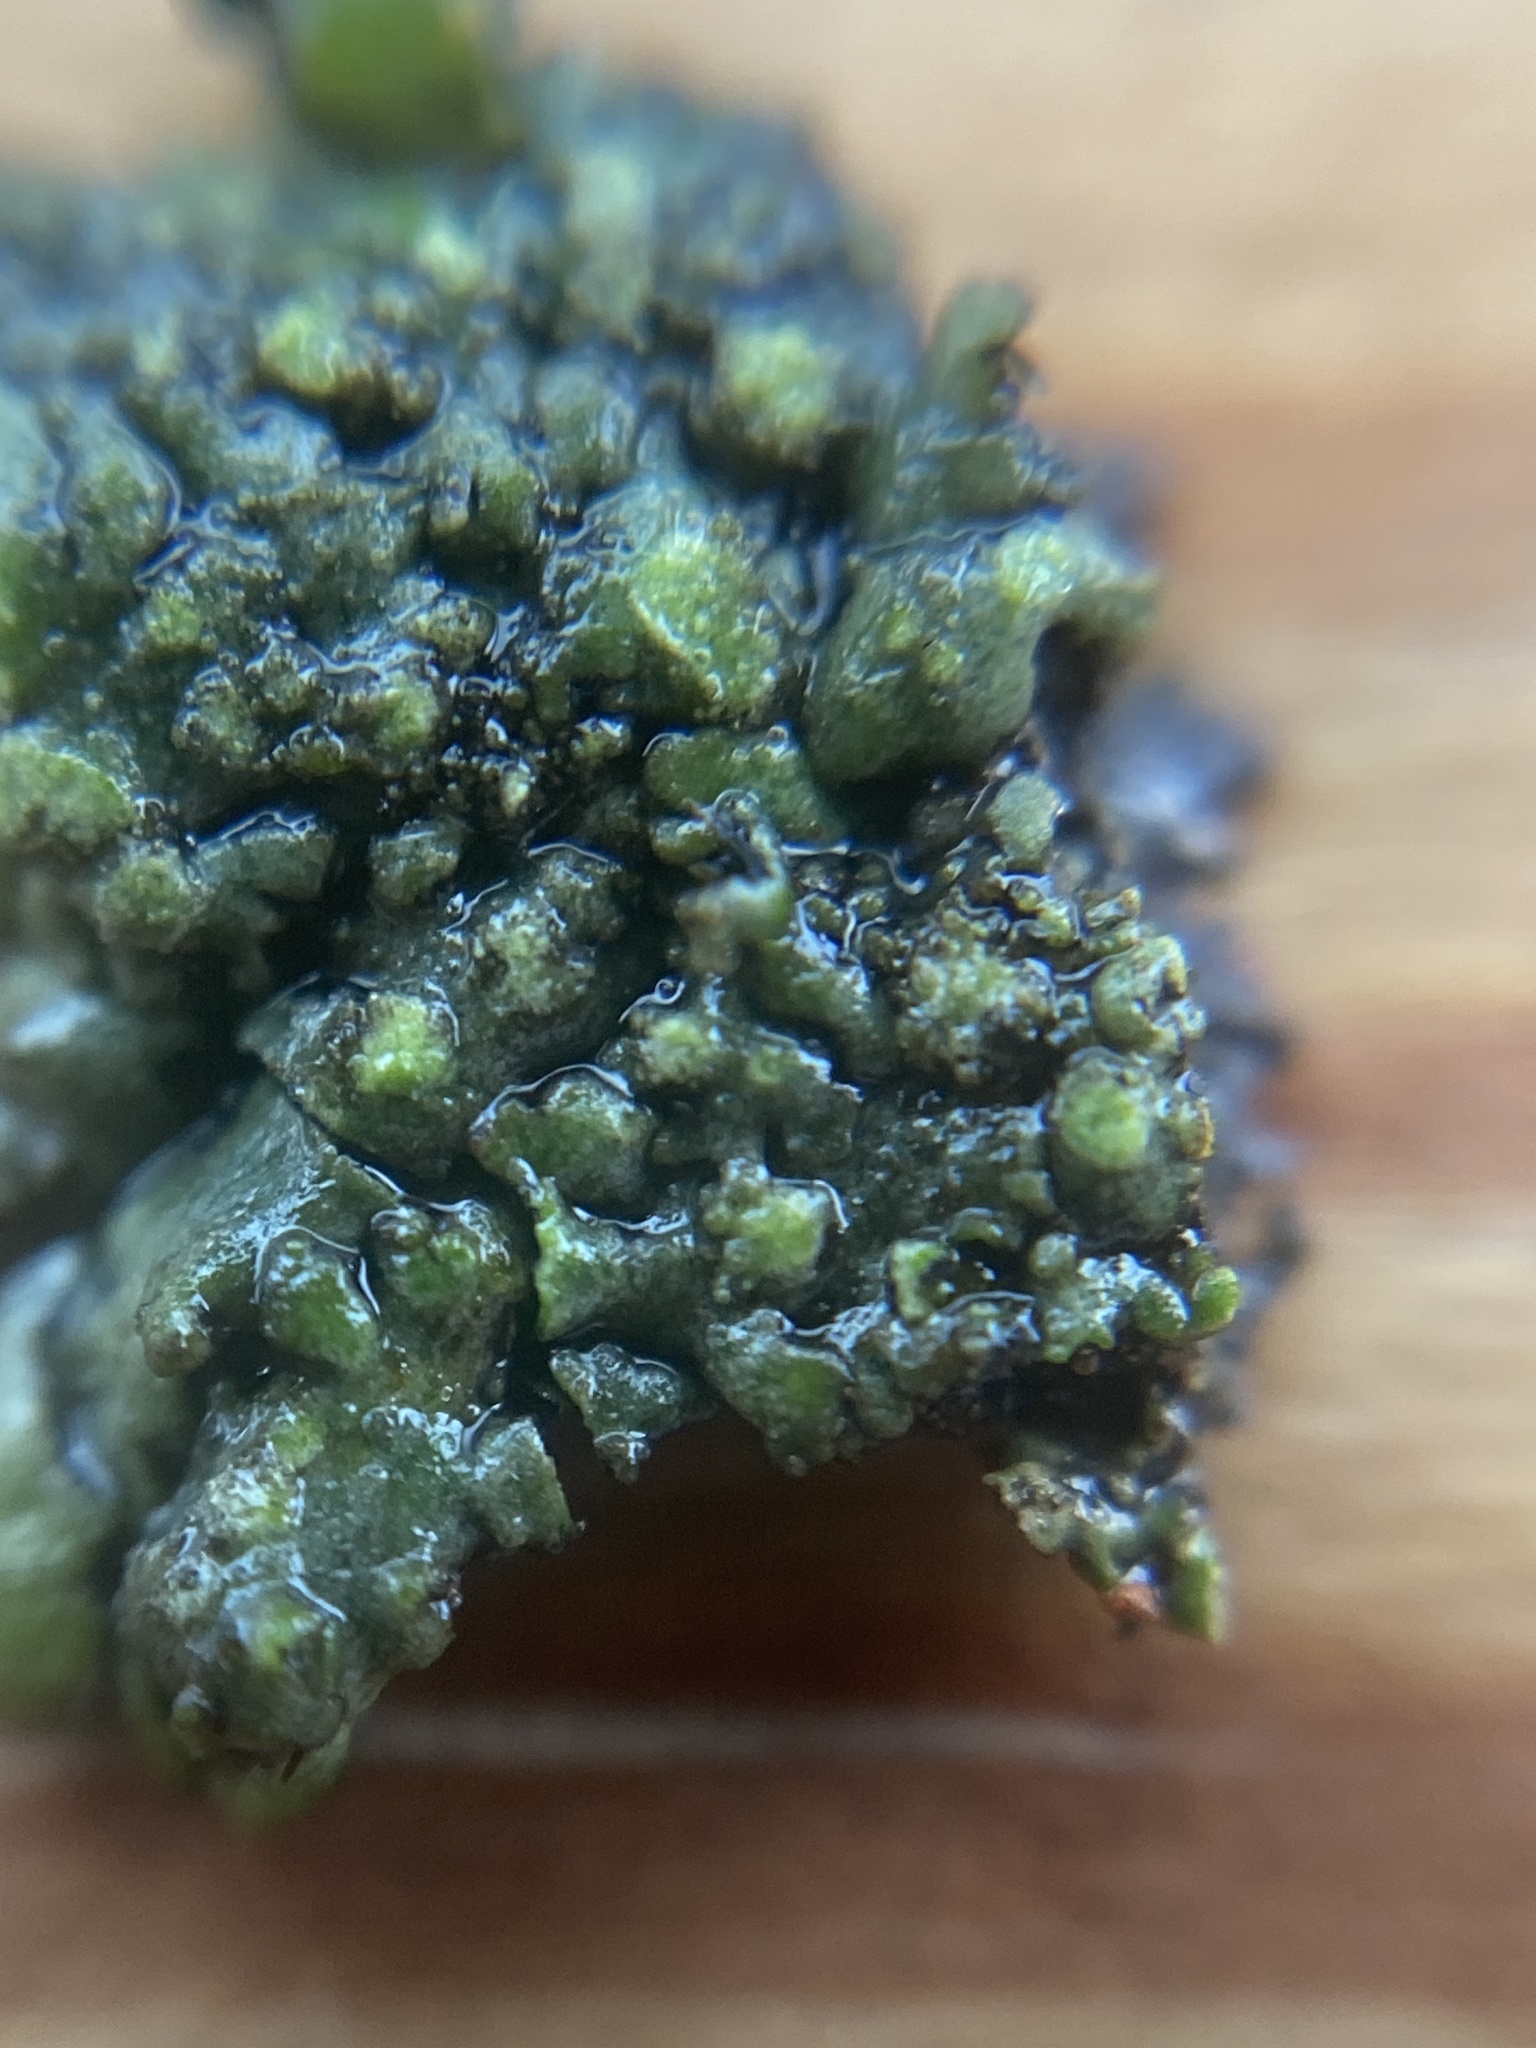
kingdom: Fungi
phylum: Ascomycota
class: Lecanoromycetes
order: Caliciales
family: Physciaceae
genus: Phaeophyscia
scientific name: Phaeophyscia orbicularis
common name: Mealy shadow lichen
